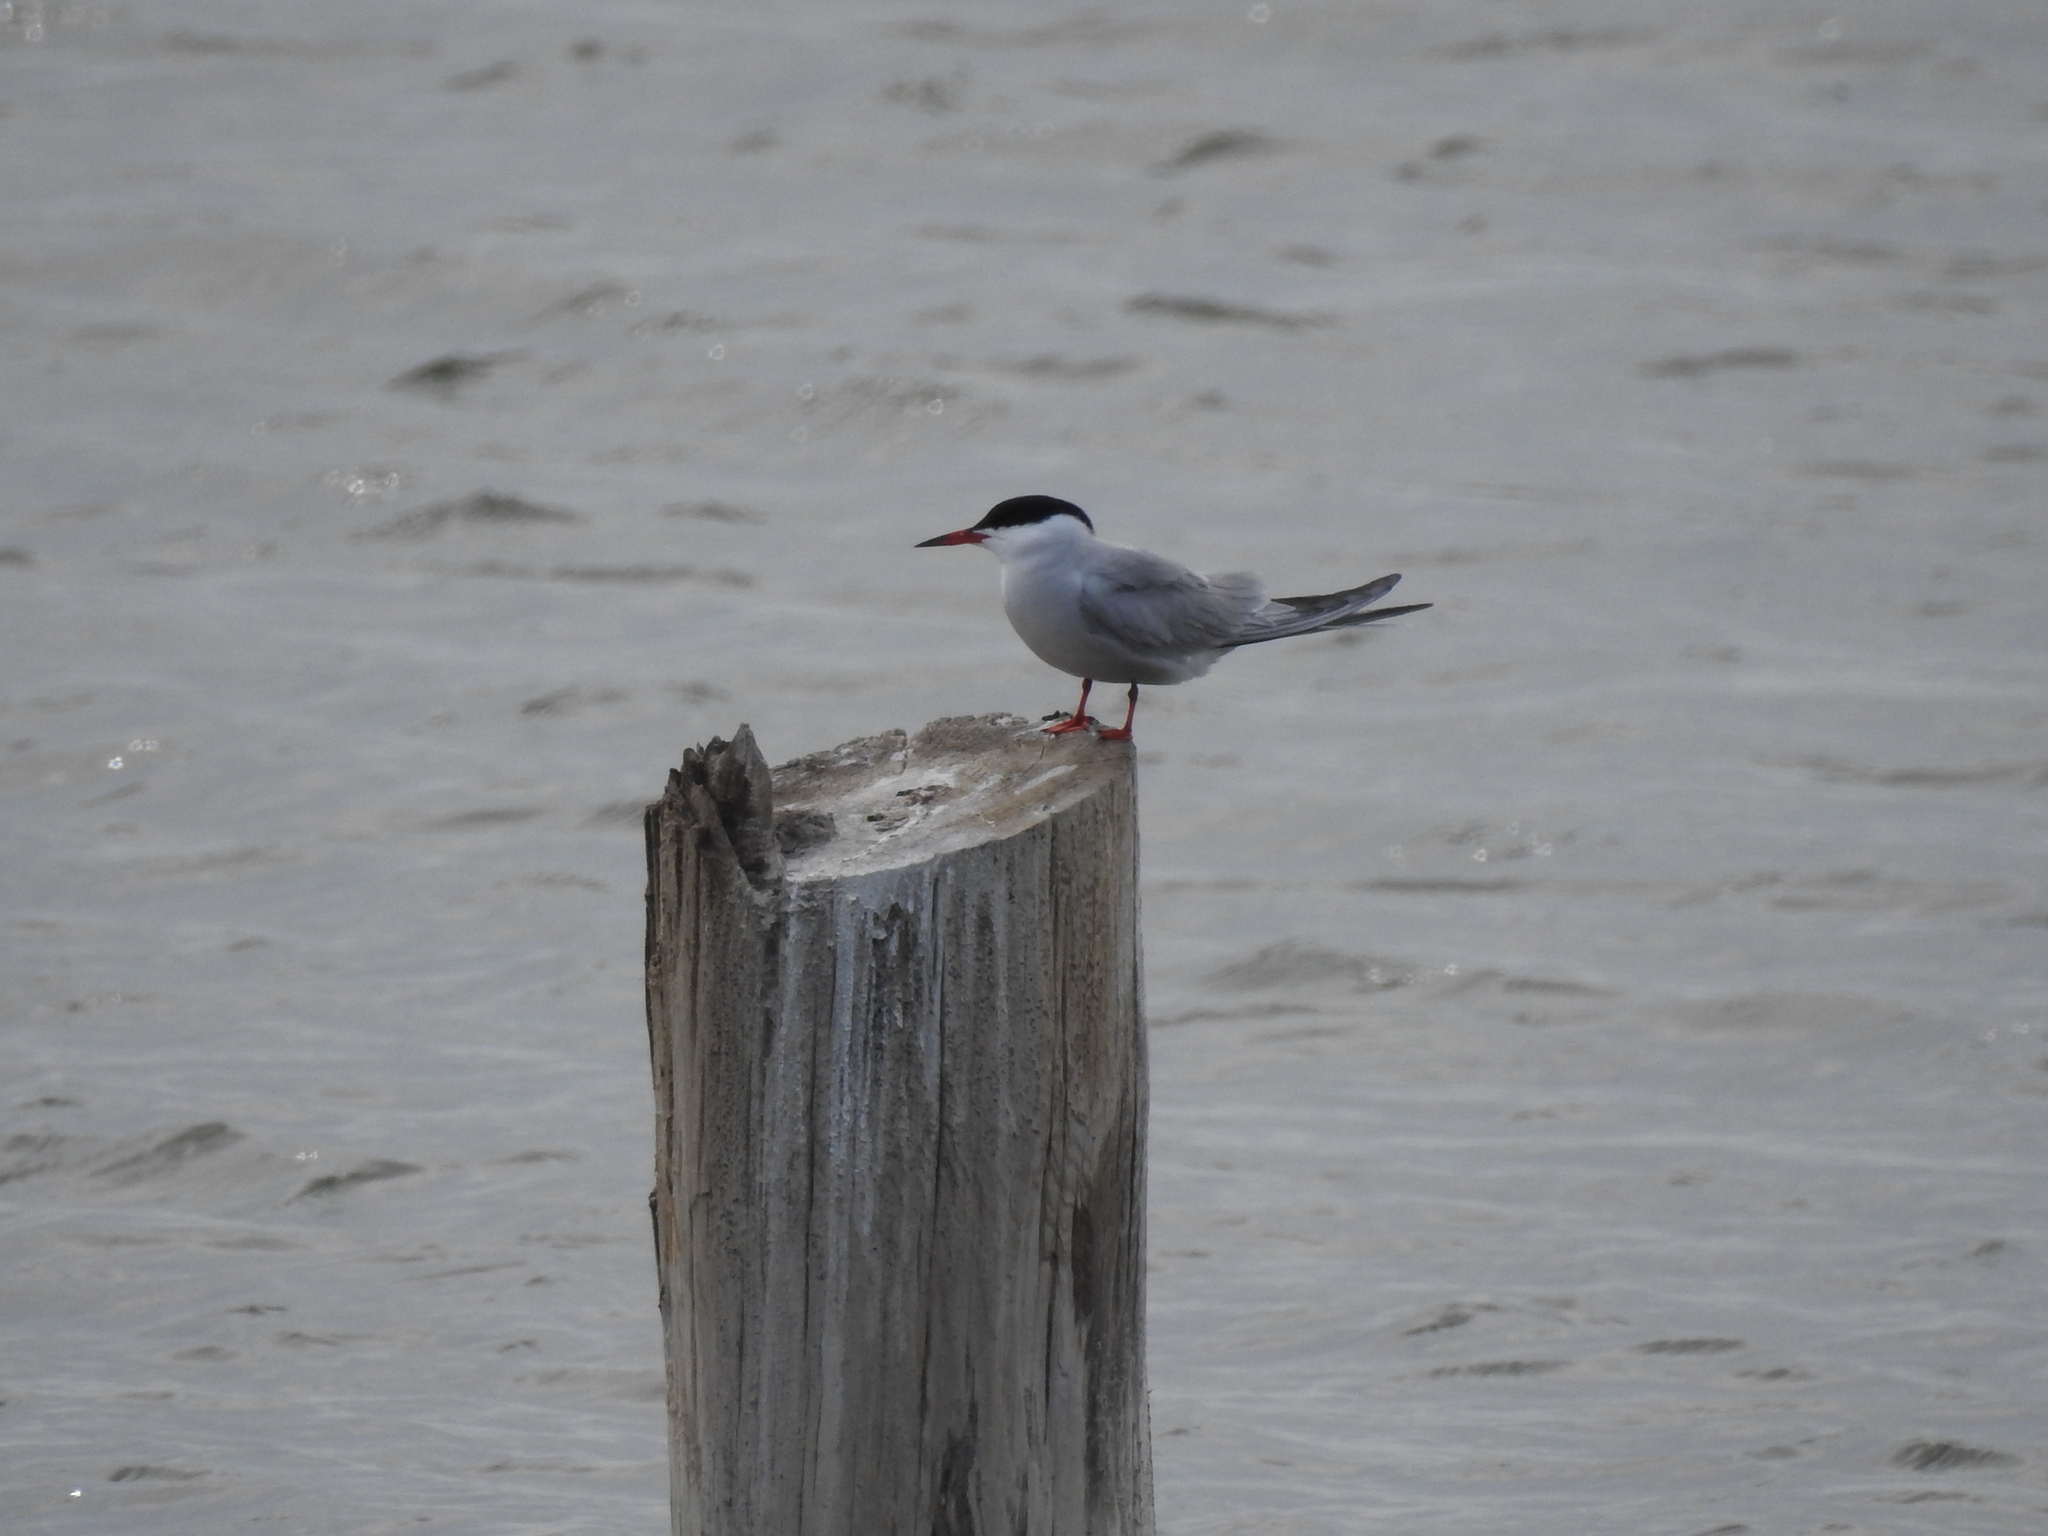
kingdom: Animalia
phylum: Chordata
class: Aves
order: Charadriiformes
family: Laridae
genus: Sterna
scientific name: Sterna hirundo
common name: Common tern
